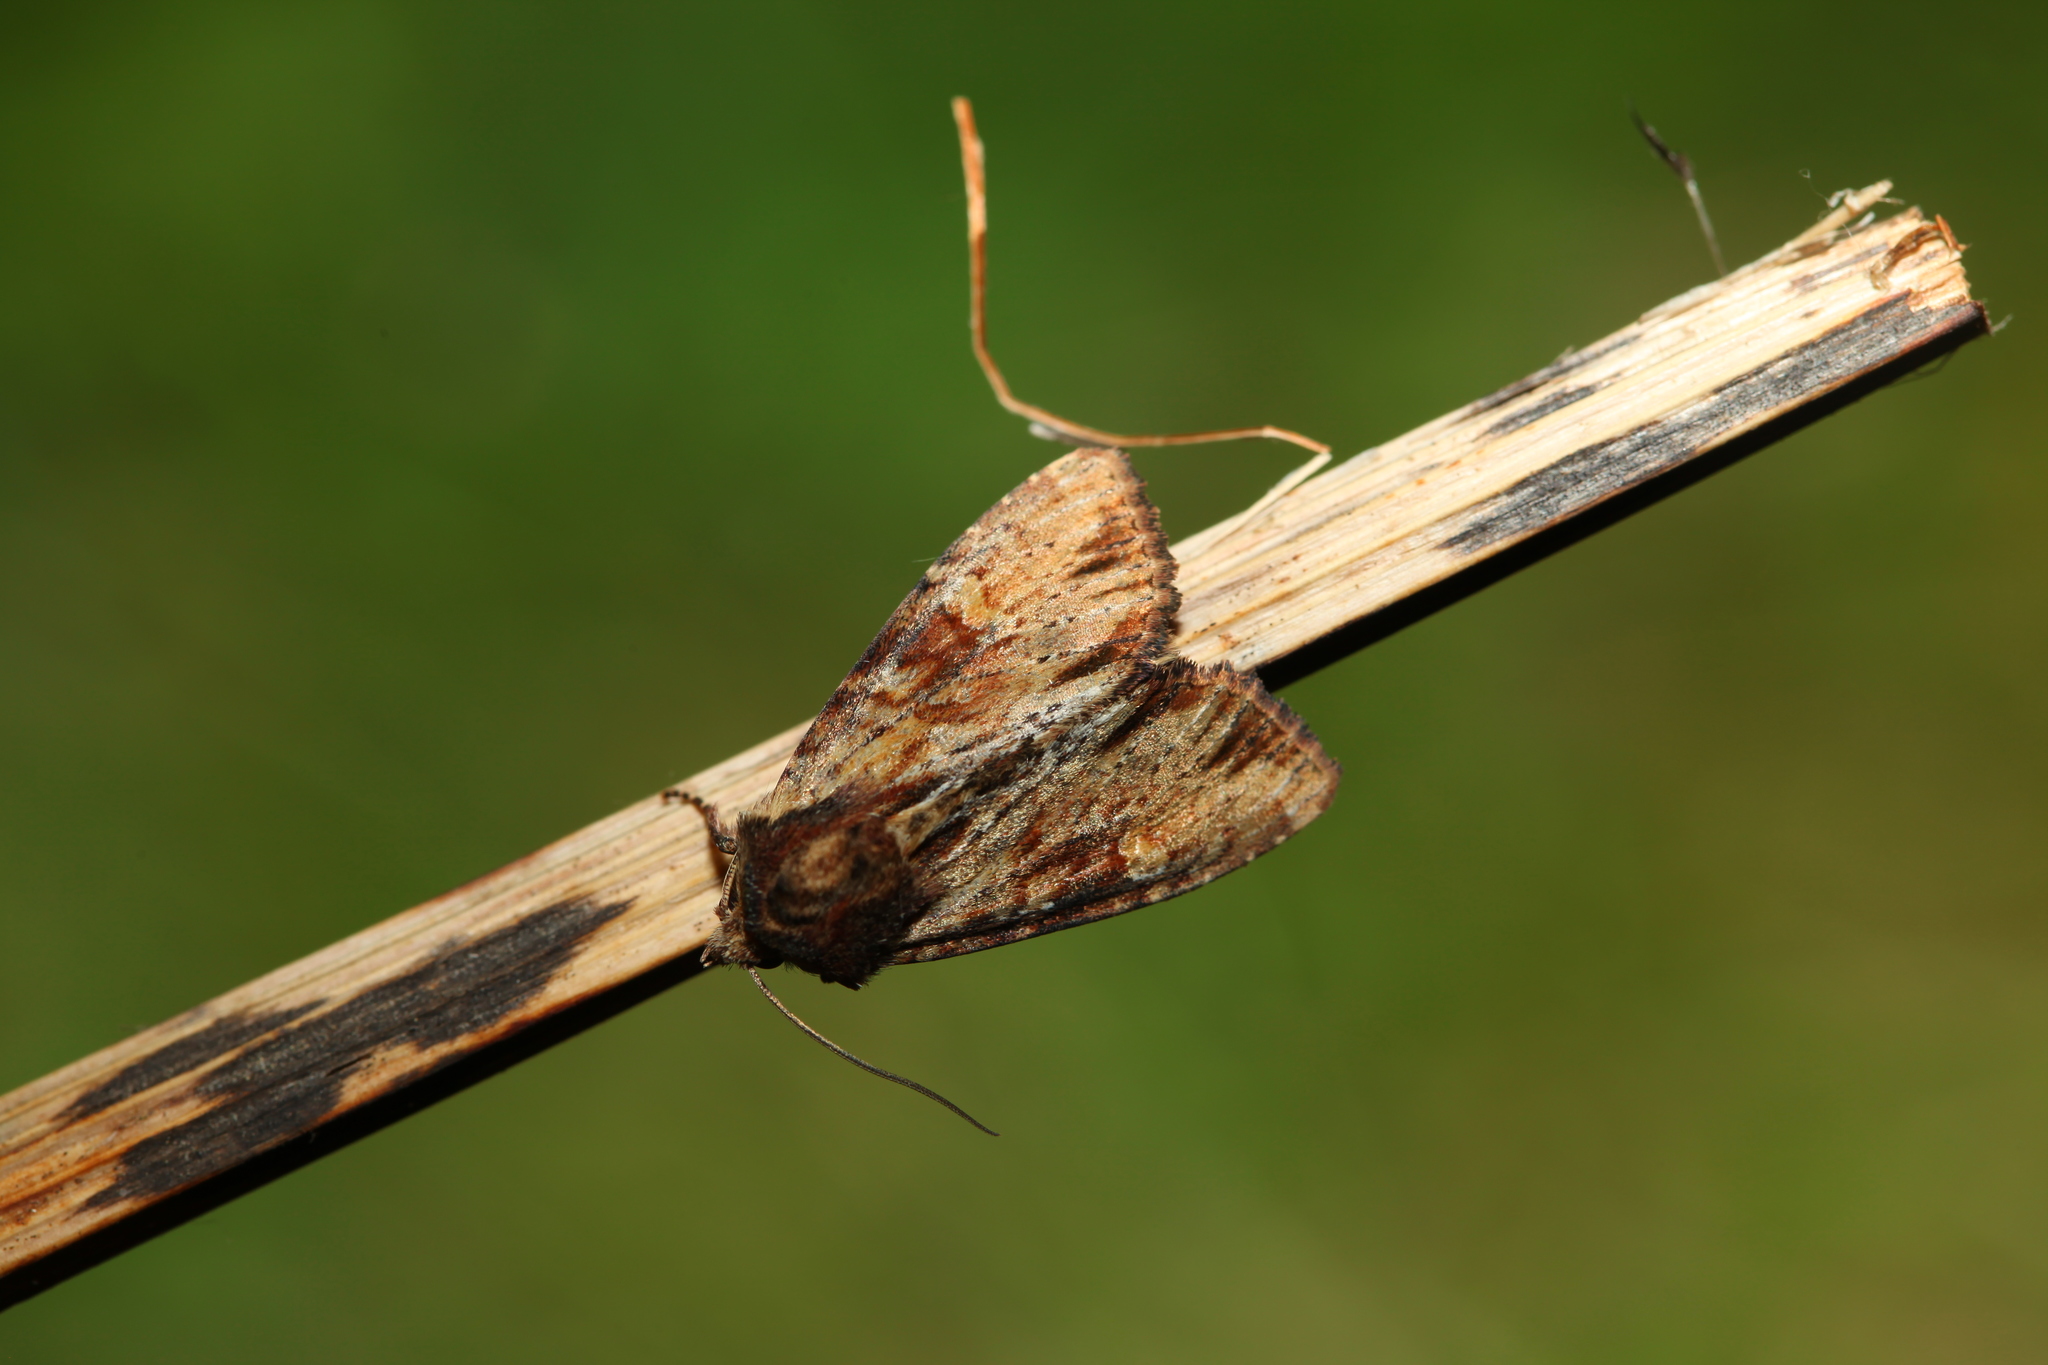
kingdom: Animalia
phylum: Arthropoda
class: Insecta
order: Lepidoptera
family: Noctuidae
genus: Apamea
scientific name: Apamea crenata
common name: Clouded-bordered brindle
